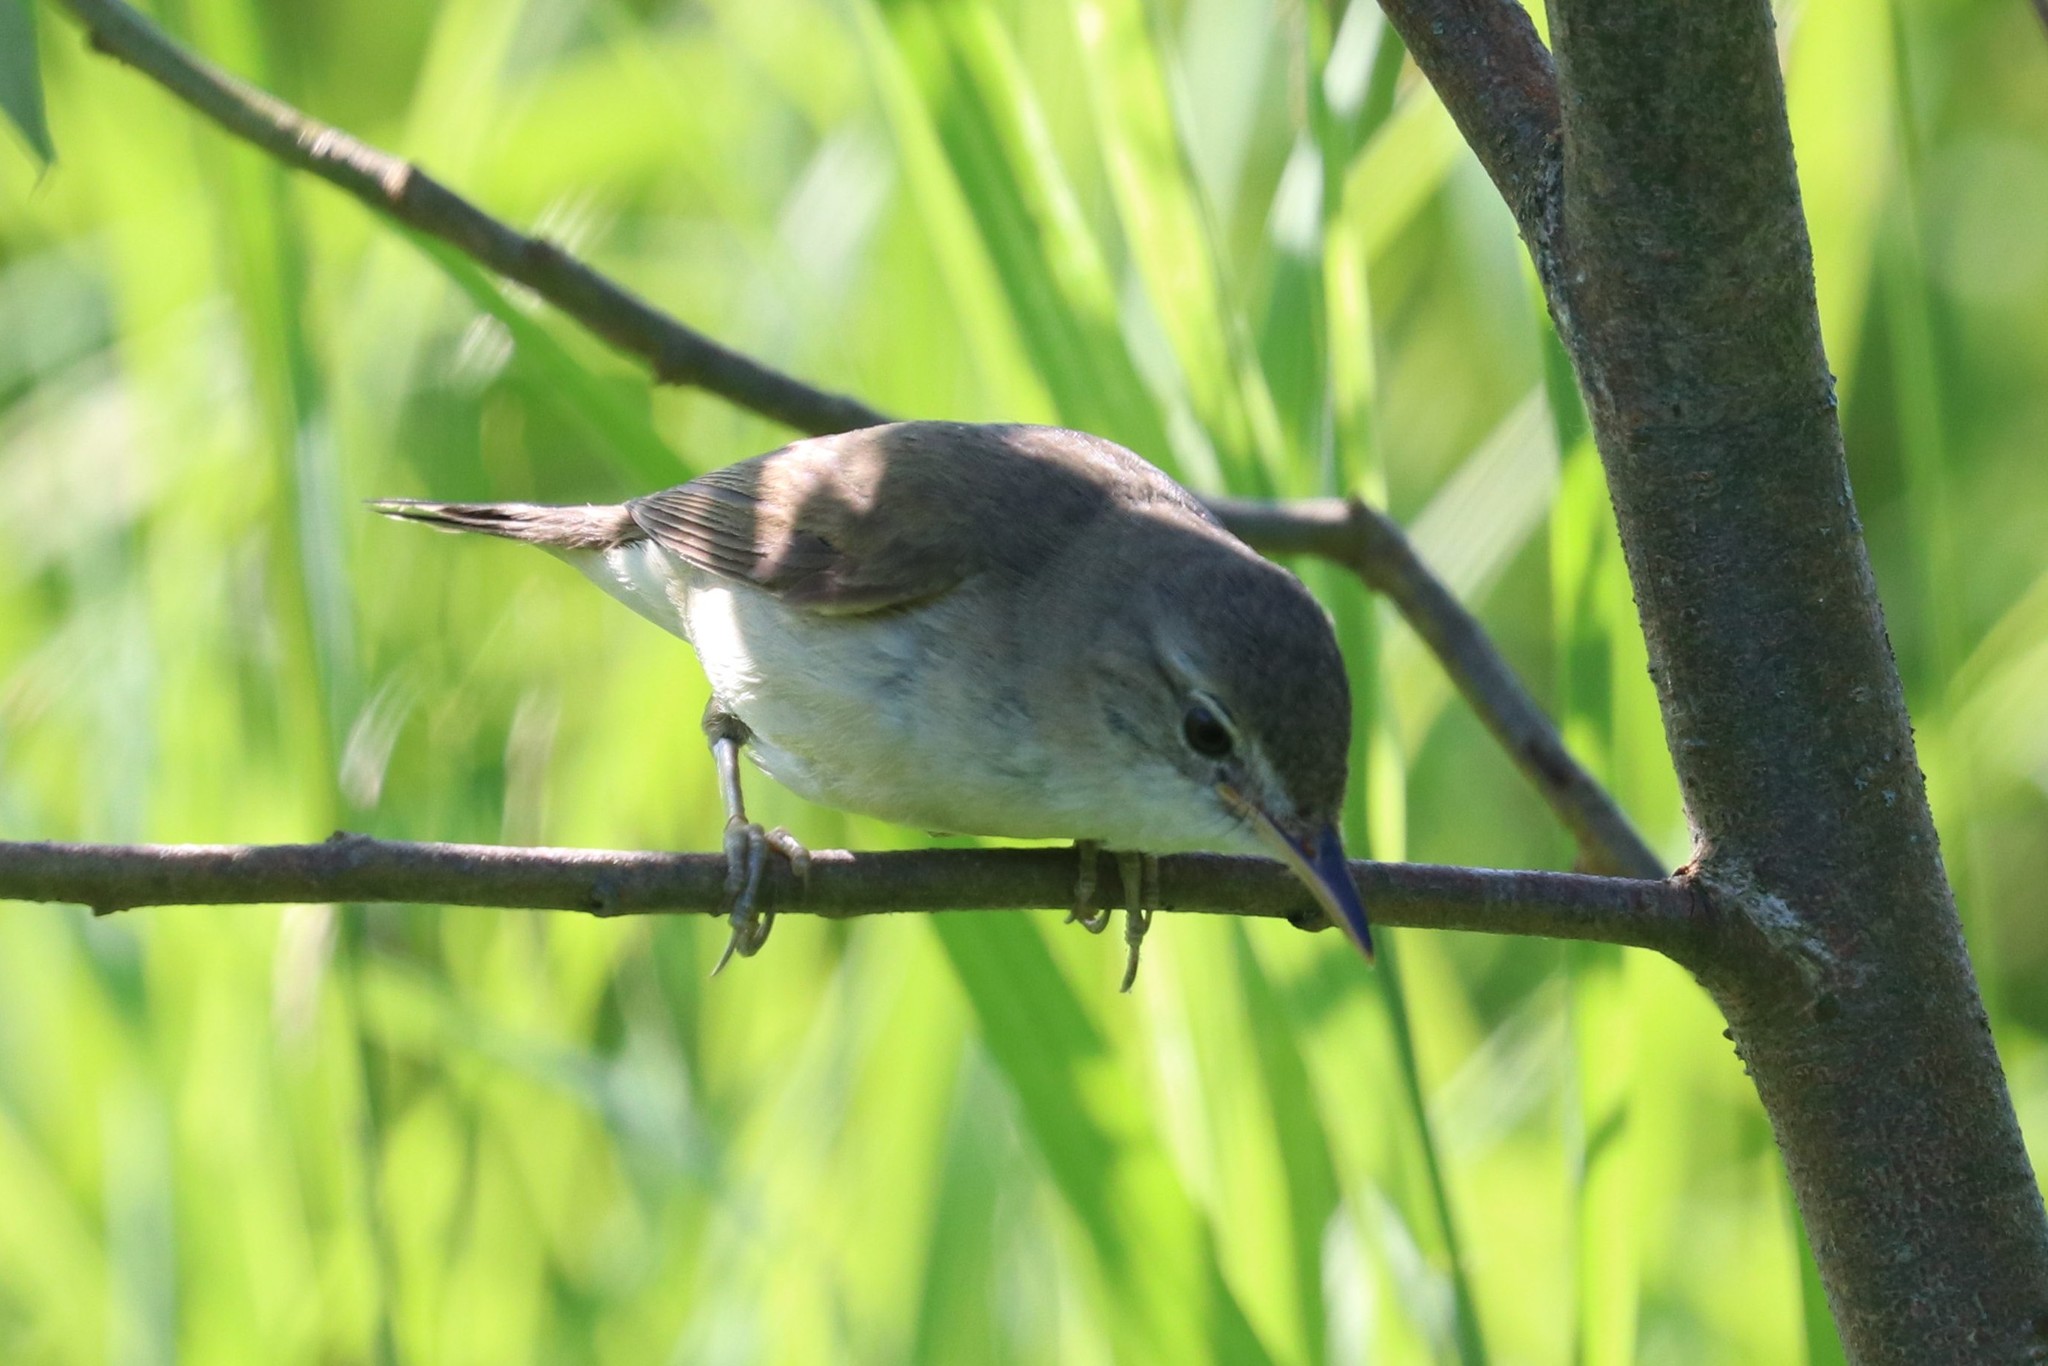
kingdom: Animalia
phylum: Chordata
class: Aves
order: Passeriformes
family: Acrocephalidae
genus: Acrocephalus
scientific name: Acrocephalus dumetorum
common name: Blyth's reed warbler
